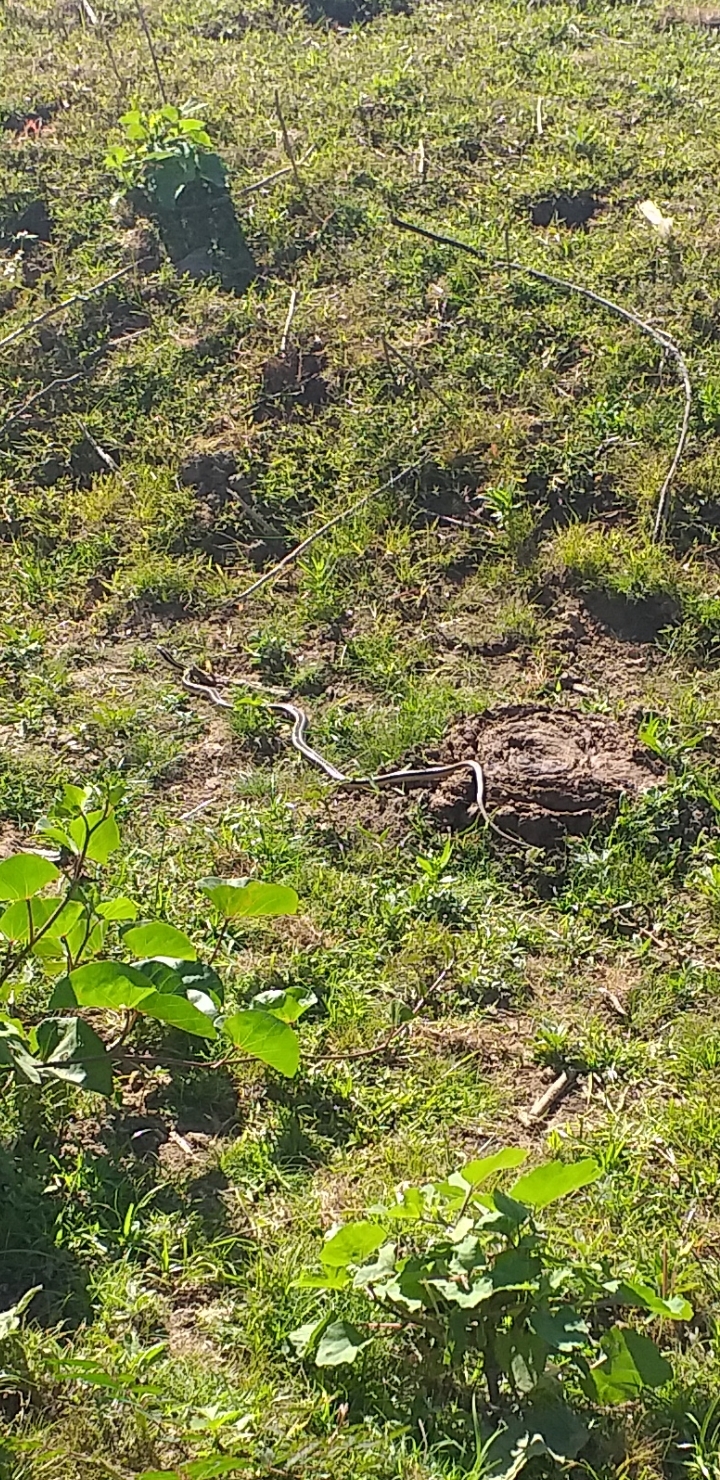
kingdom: Animalia
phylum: Chordata
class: Squamata
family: Colubridae
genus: Lygophis
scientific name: Lygophis dilepis
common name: Lema's ground snake
